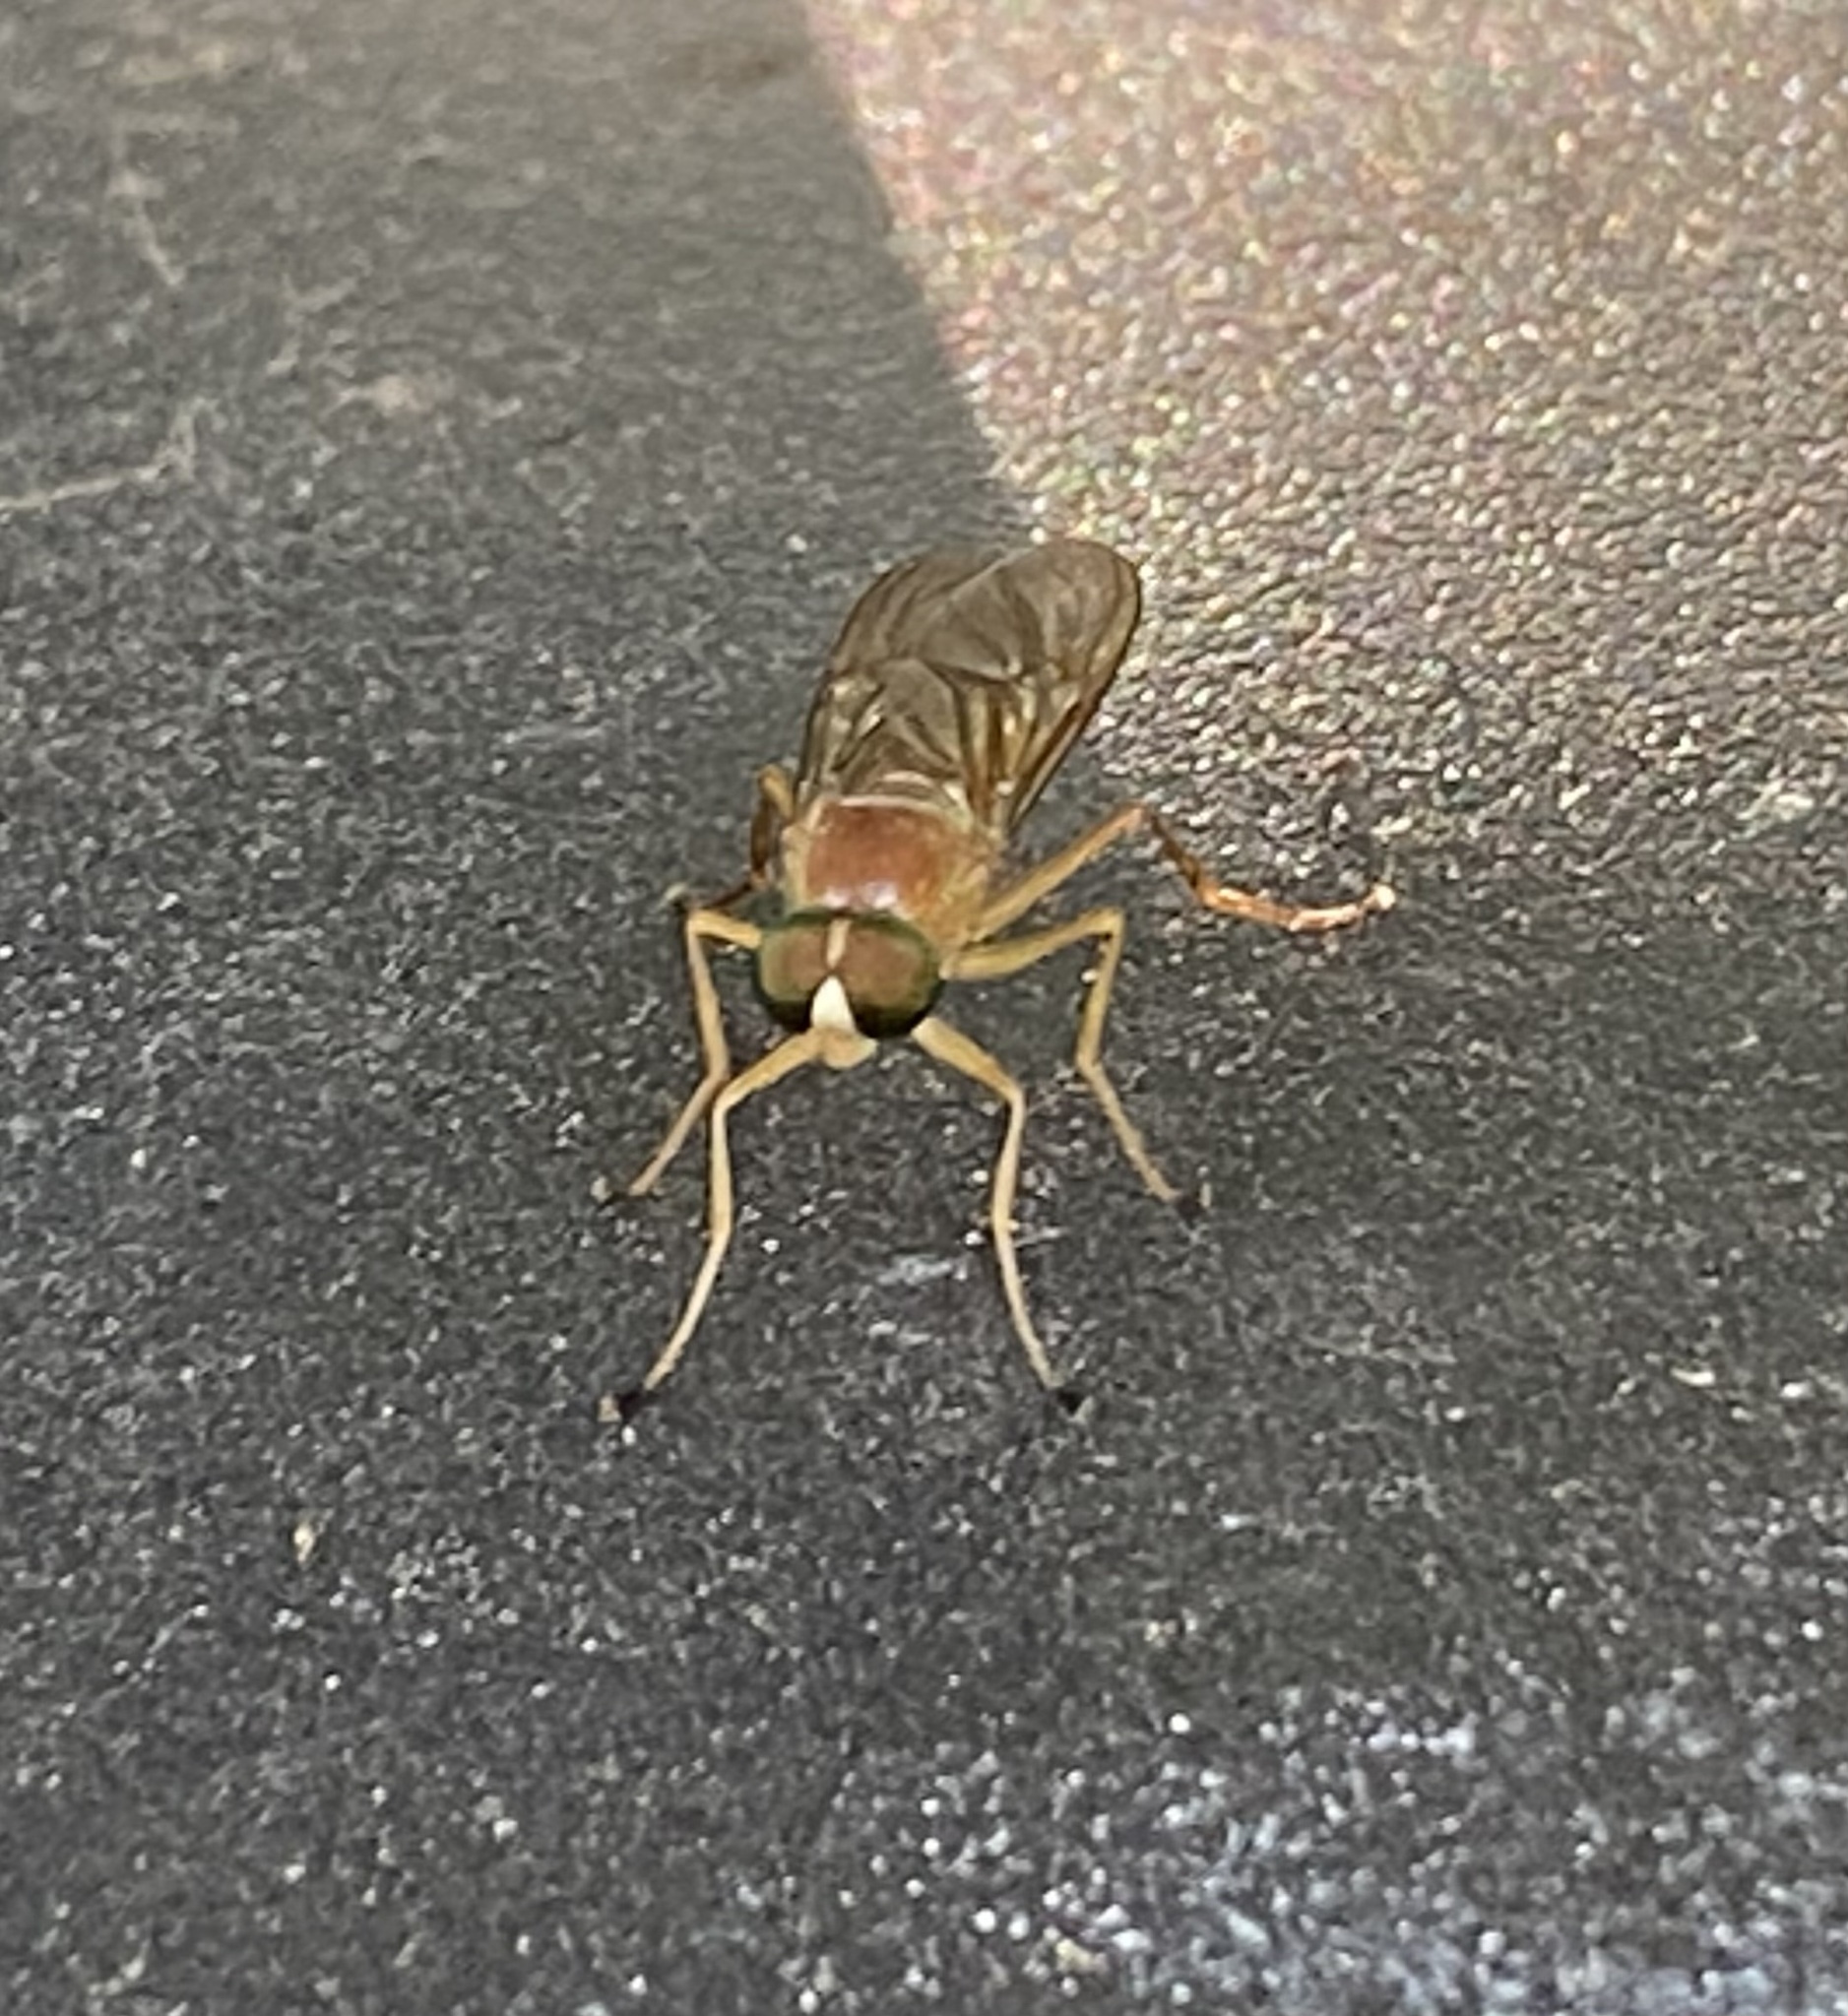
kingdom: Animalia
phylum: Arthropoda
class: Insecta
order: Diptera
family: Stratiomyidae
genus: Ptecticus
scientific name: Ptecticus trivittatus
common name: Compost fly
